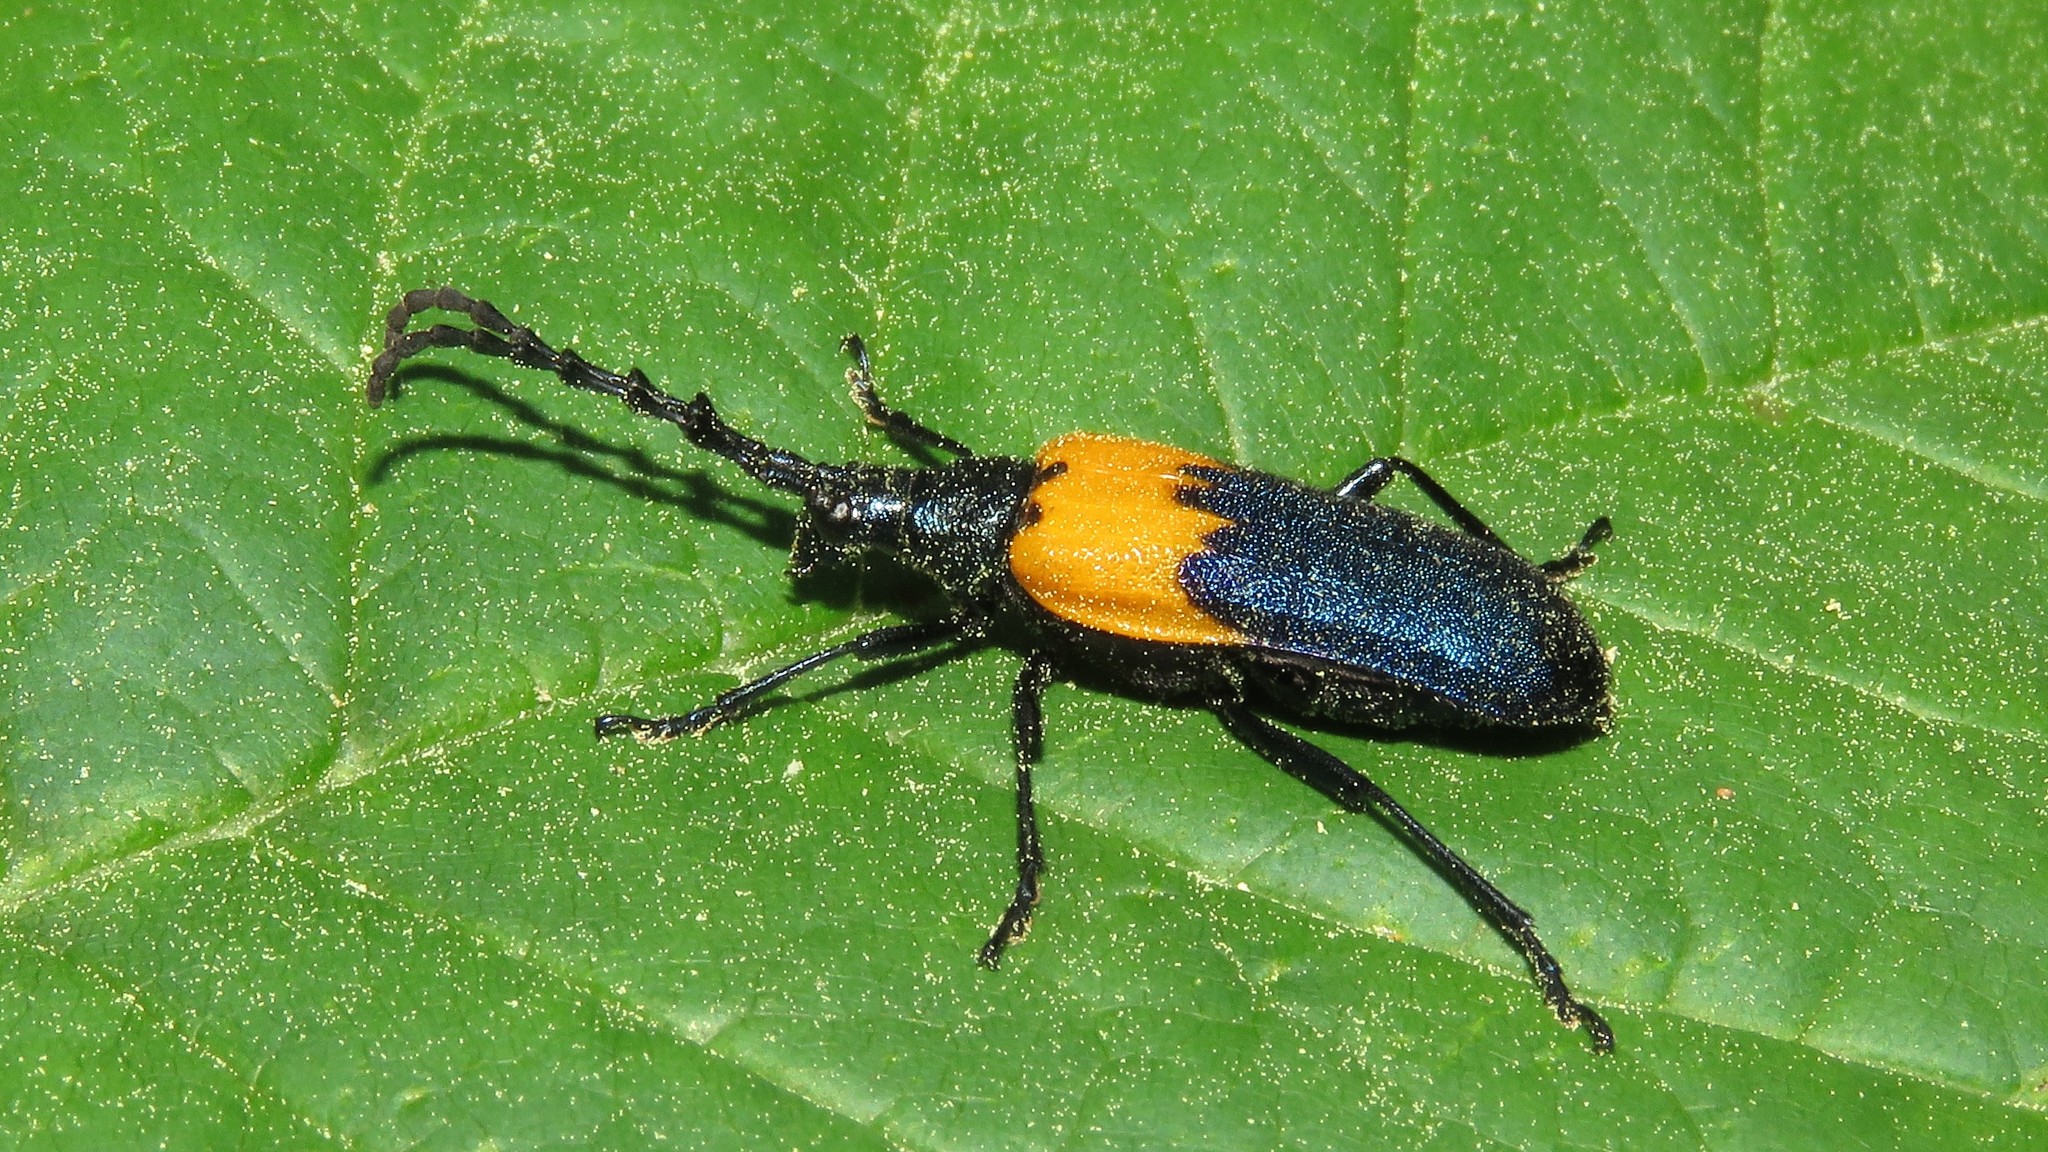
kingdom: Animalia
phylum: Arthropoda
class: Insecta
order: Coleoptera
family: Cerambycidae
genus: Desmocerus
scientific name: Desmocerus palliatus
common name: Eastern elderberry borer
